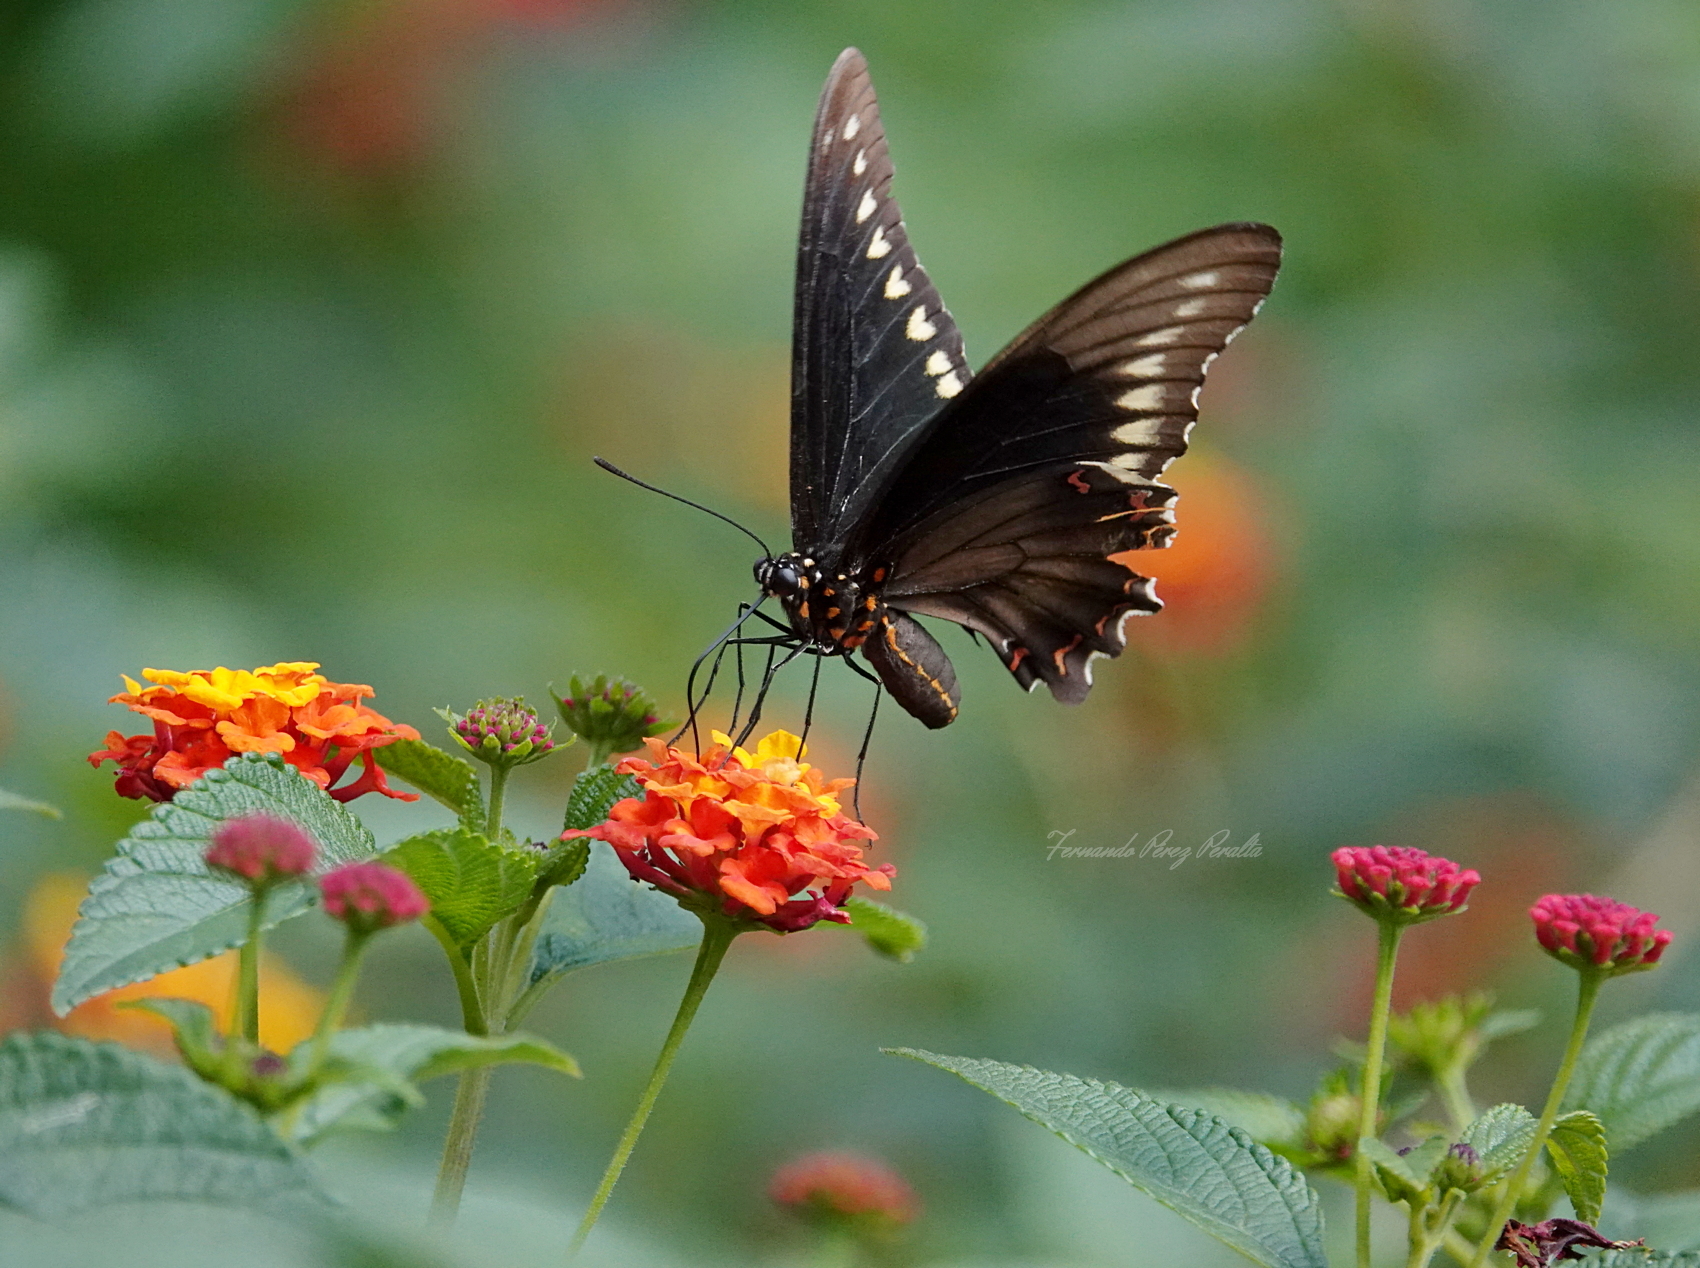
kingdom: Animalia
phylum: Arthropoda
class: Insecta
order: Lepidoptera
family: Papilionidae
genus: Battus
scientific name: Battus polydamas
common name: Polydamas swallowtail
